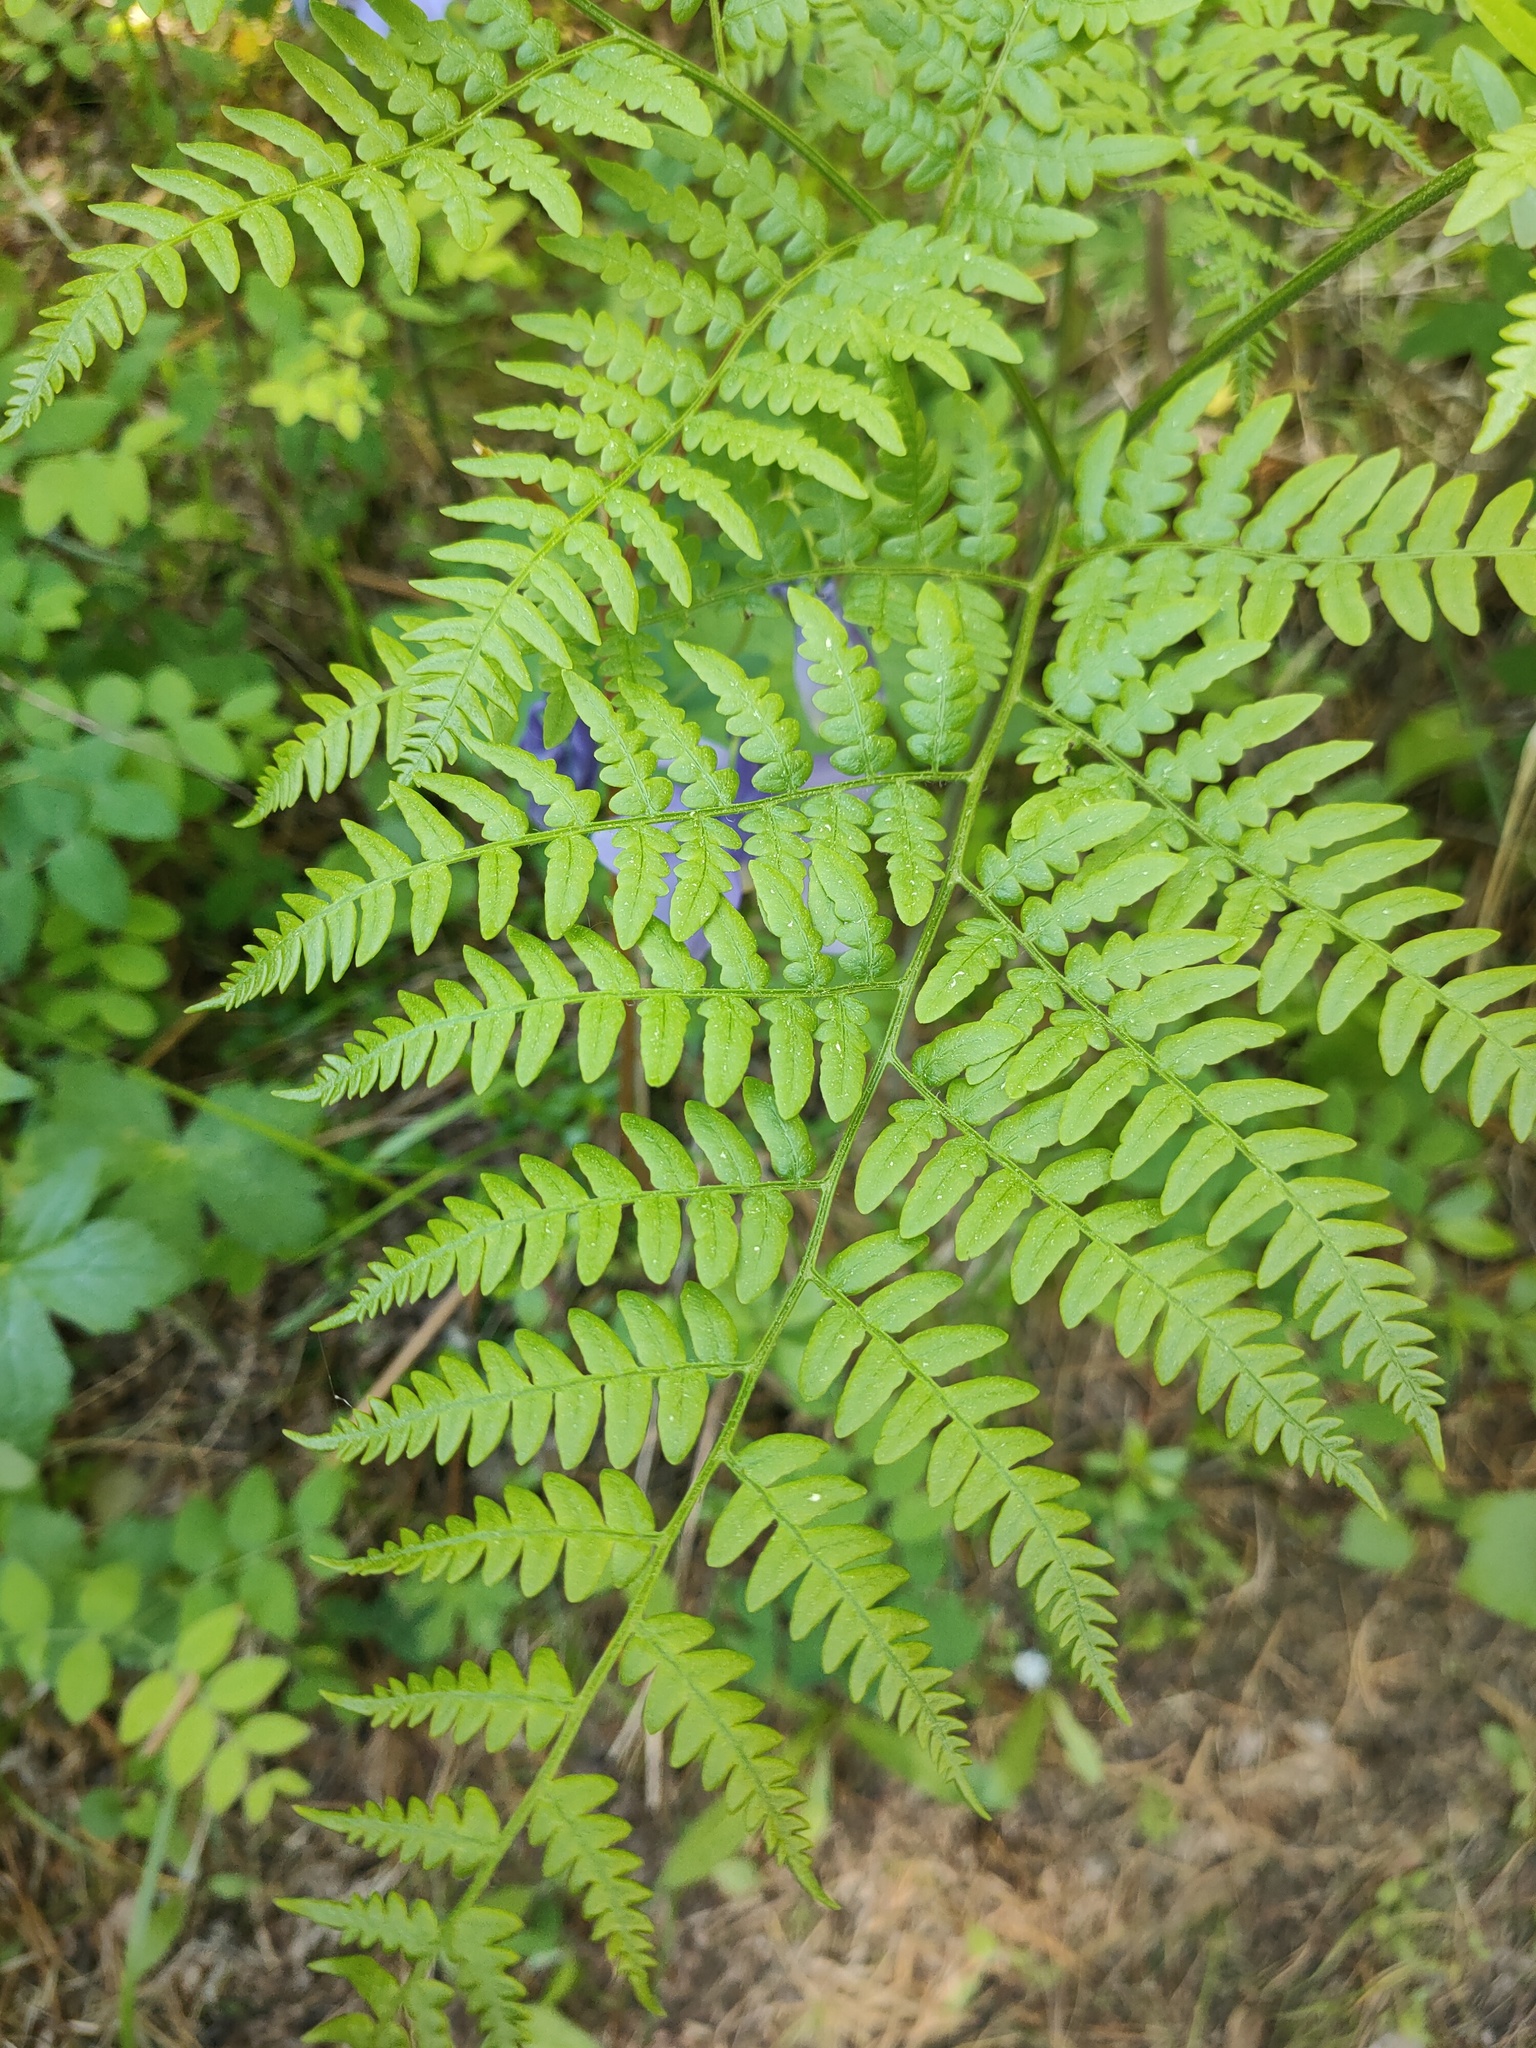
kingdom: Plantae
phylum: Tracheophyta
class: Polypodiopsida
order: Polypodiales
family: Dennstaedtiaceae
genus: Pteridium
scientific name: Pteridium aquilinum
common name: Bracken
